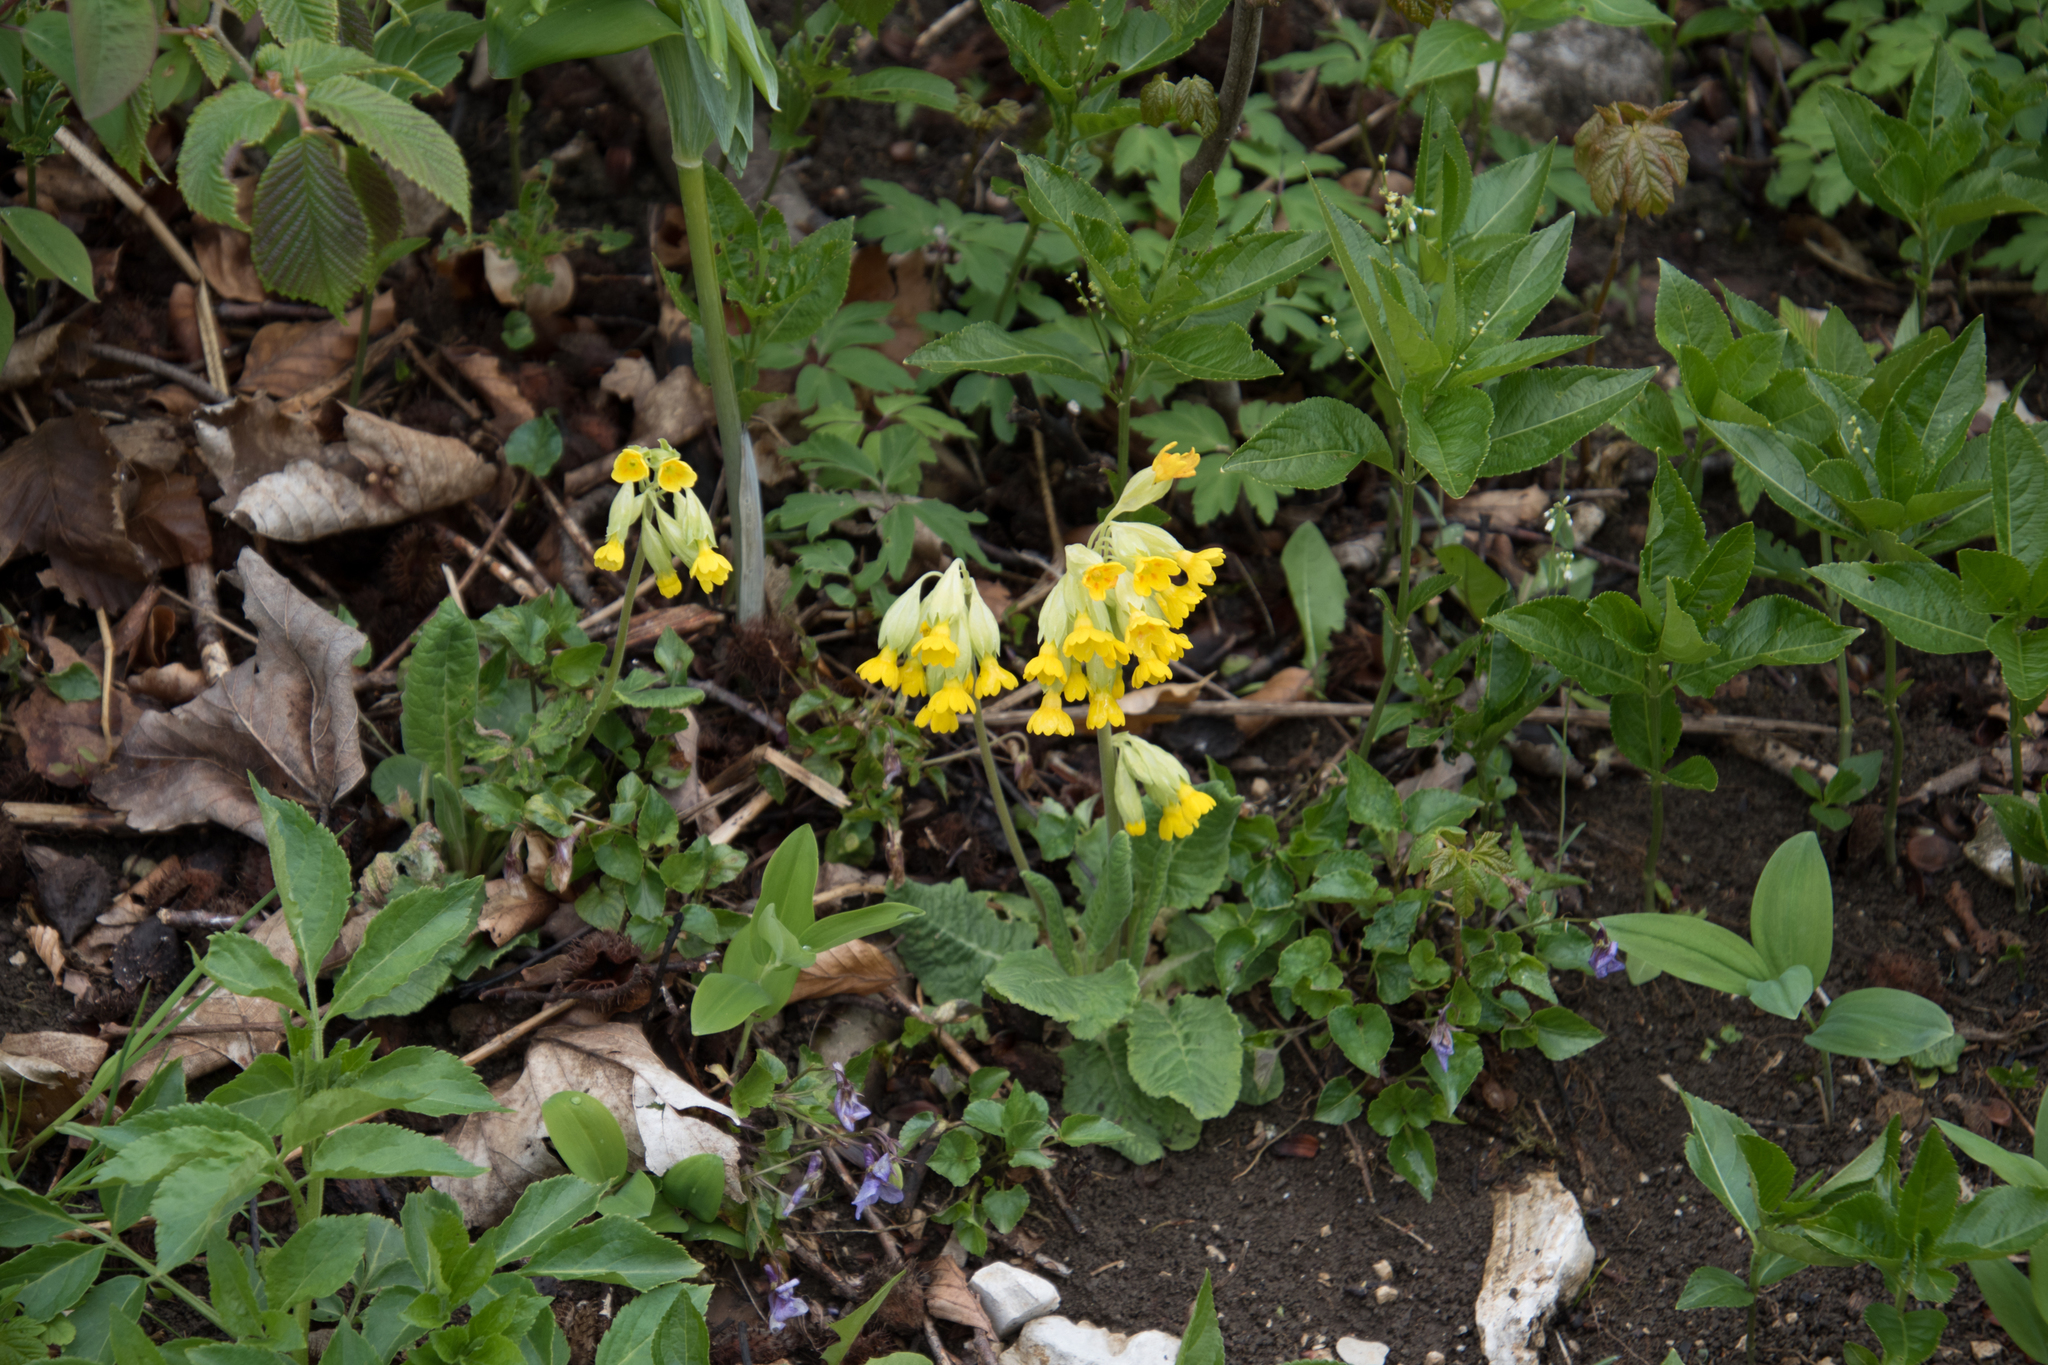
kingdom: Plantae
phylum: Tracheophyta
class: Magnoliopsida
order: Ericales
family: Primulaceae
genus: Primula
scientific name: Primula veris
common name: Cowslip
